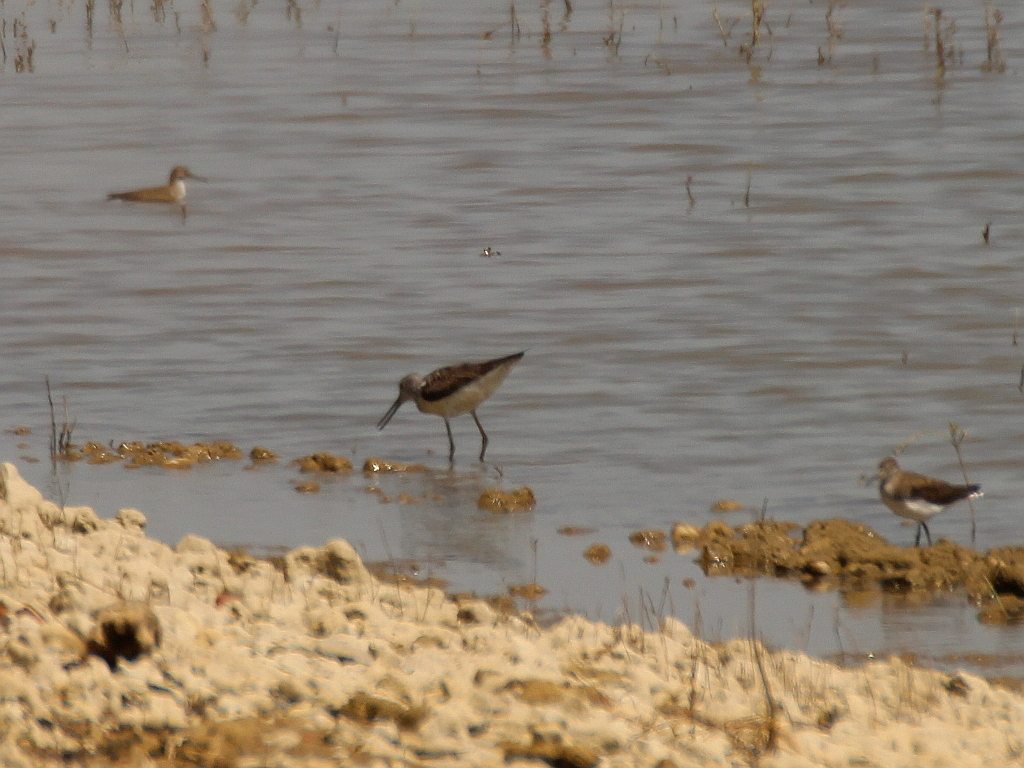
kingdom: Animalia
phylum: Chordata
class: Aves
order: Charadriiformes
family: Scolopacidae
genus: Tringa
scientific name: Tringa nebularia
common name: Common greenshank
